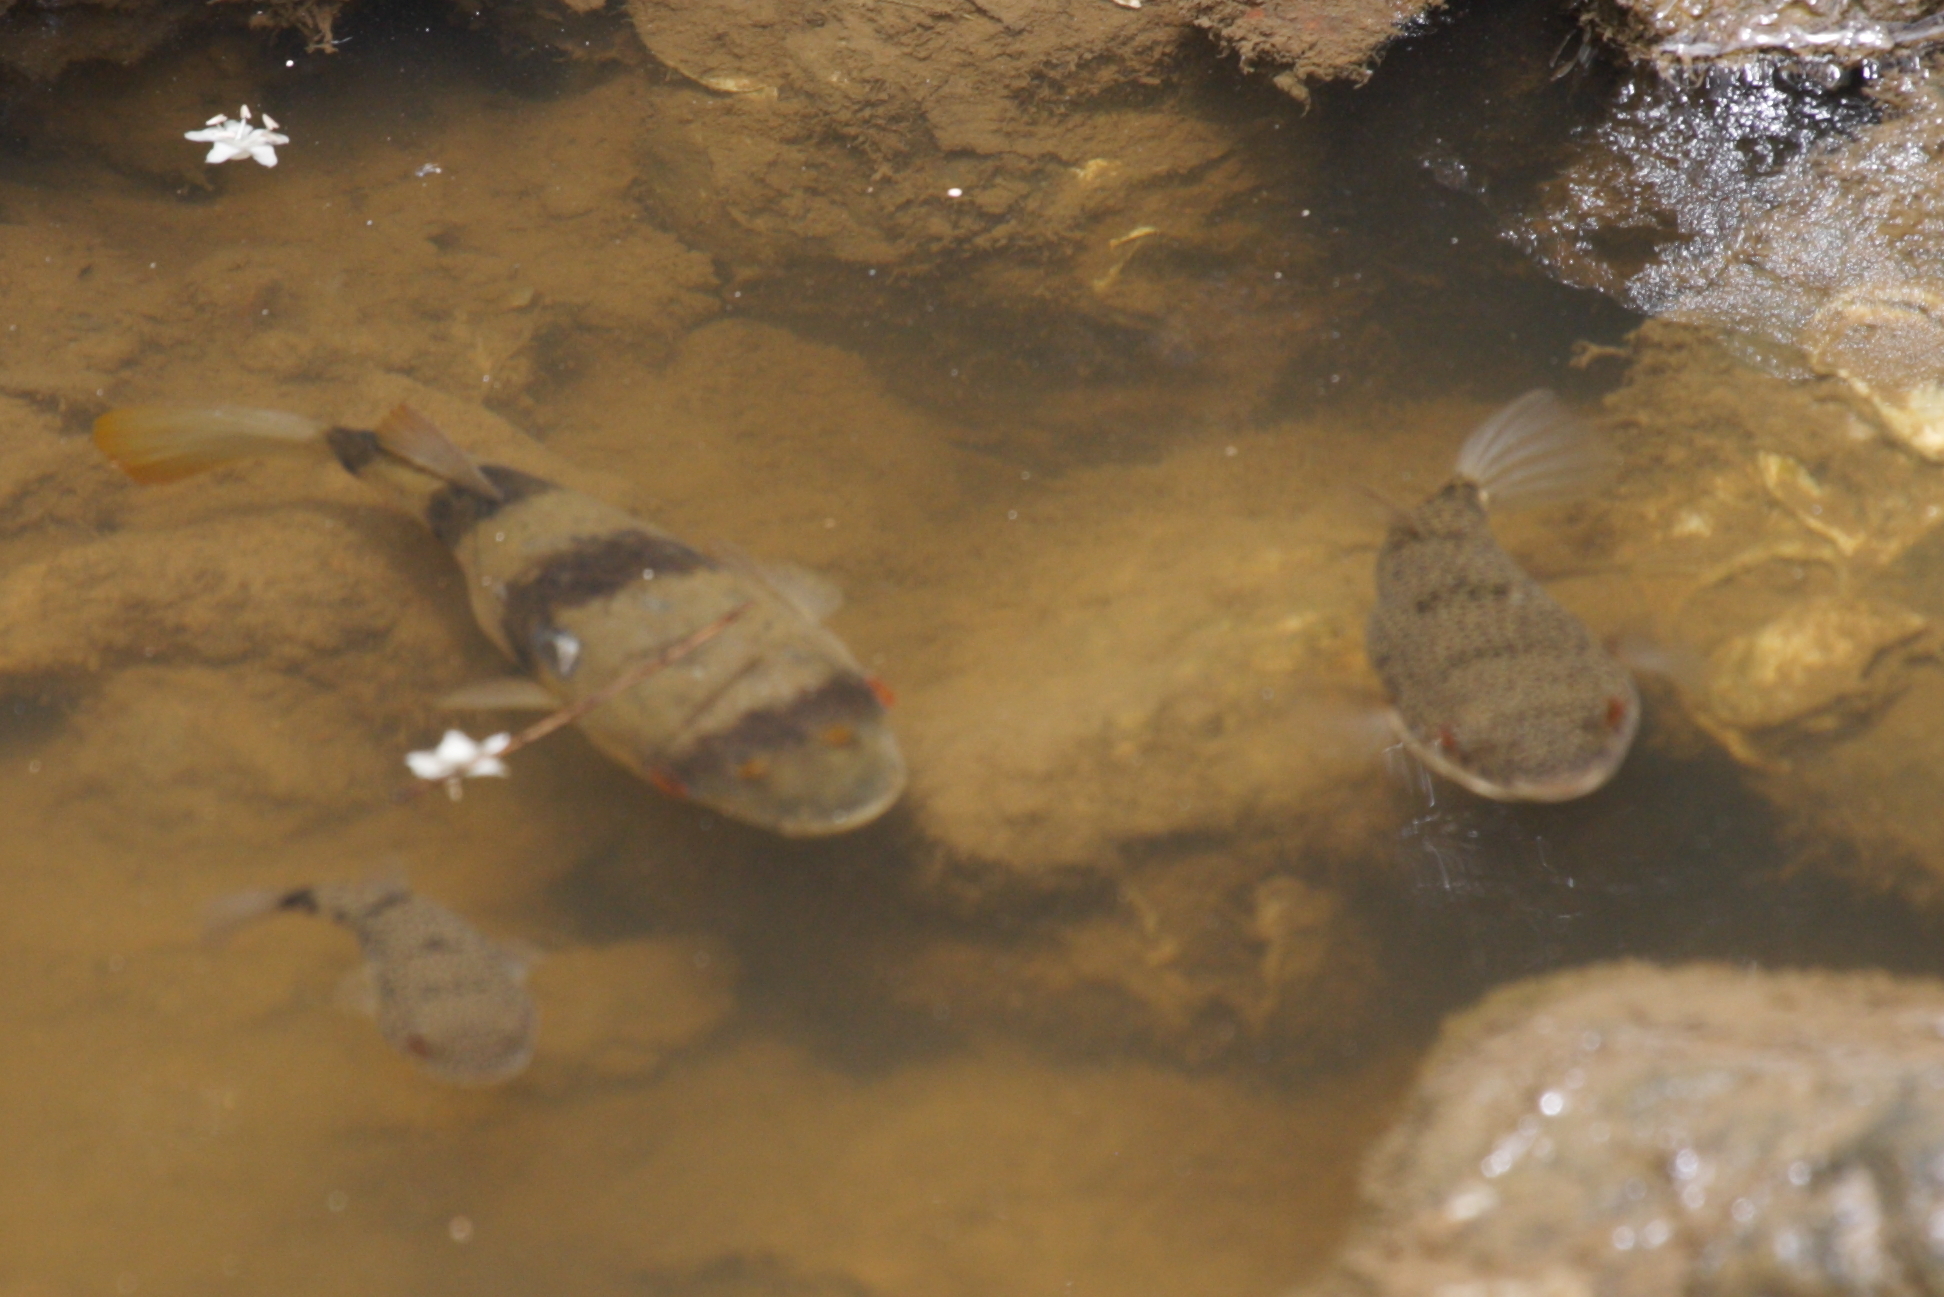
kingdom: Animalia
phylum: Chordata
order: Tetraodontiformes
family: Tetraodontidae
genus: Tetractenos
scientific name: Tetractenos hamiltoni
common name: Common toadfish
